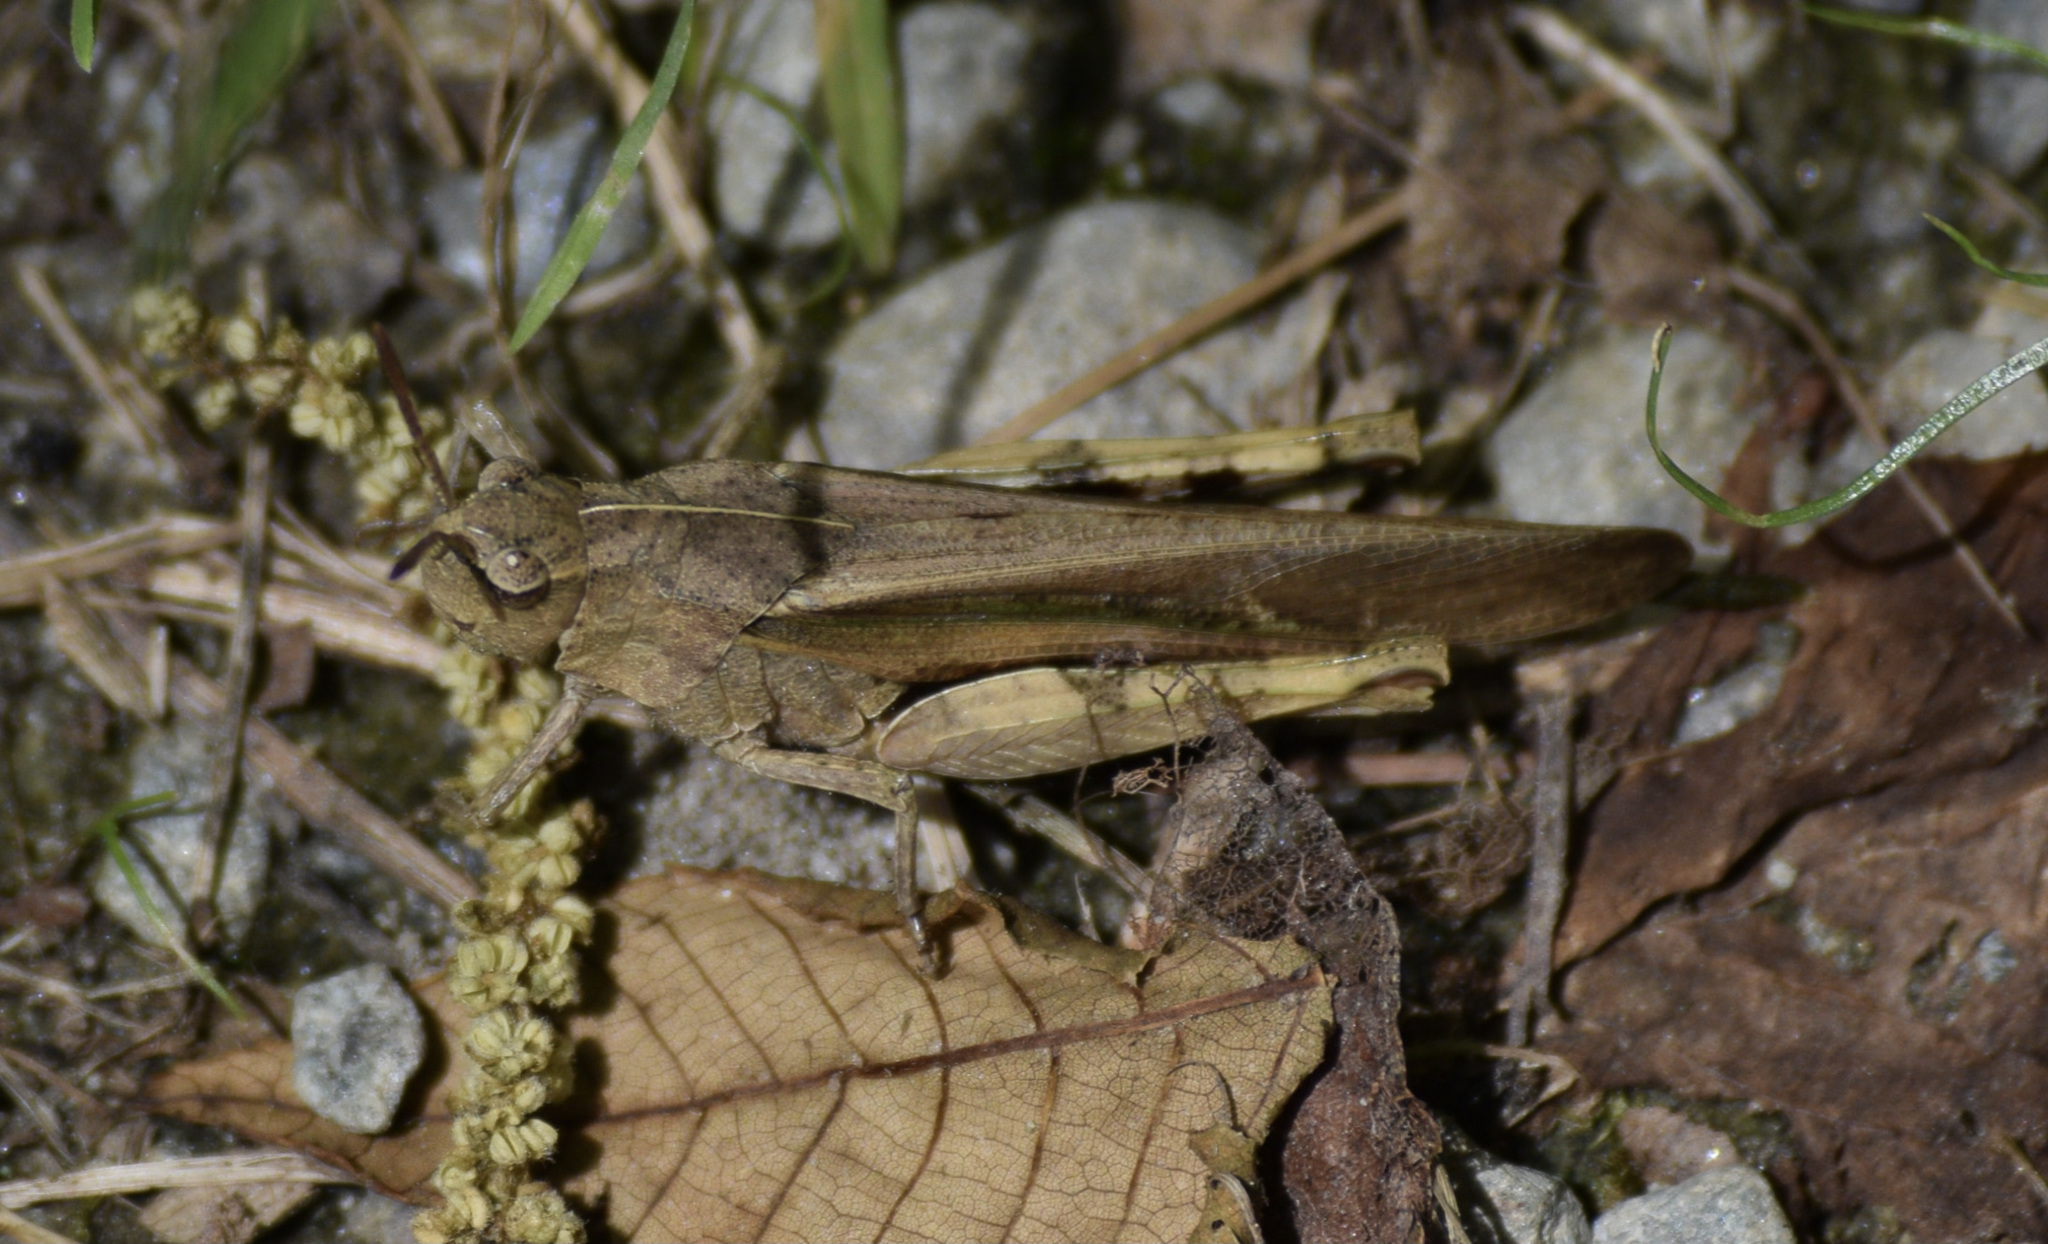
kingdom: Animalia
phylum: Arthropoda
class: Insecta
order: Orthoptera
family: Acrididae
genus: Chortophaga
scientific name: Chortophaga viridifasciata
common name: Green-striped grasshopper
